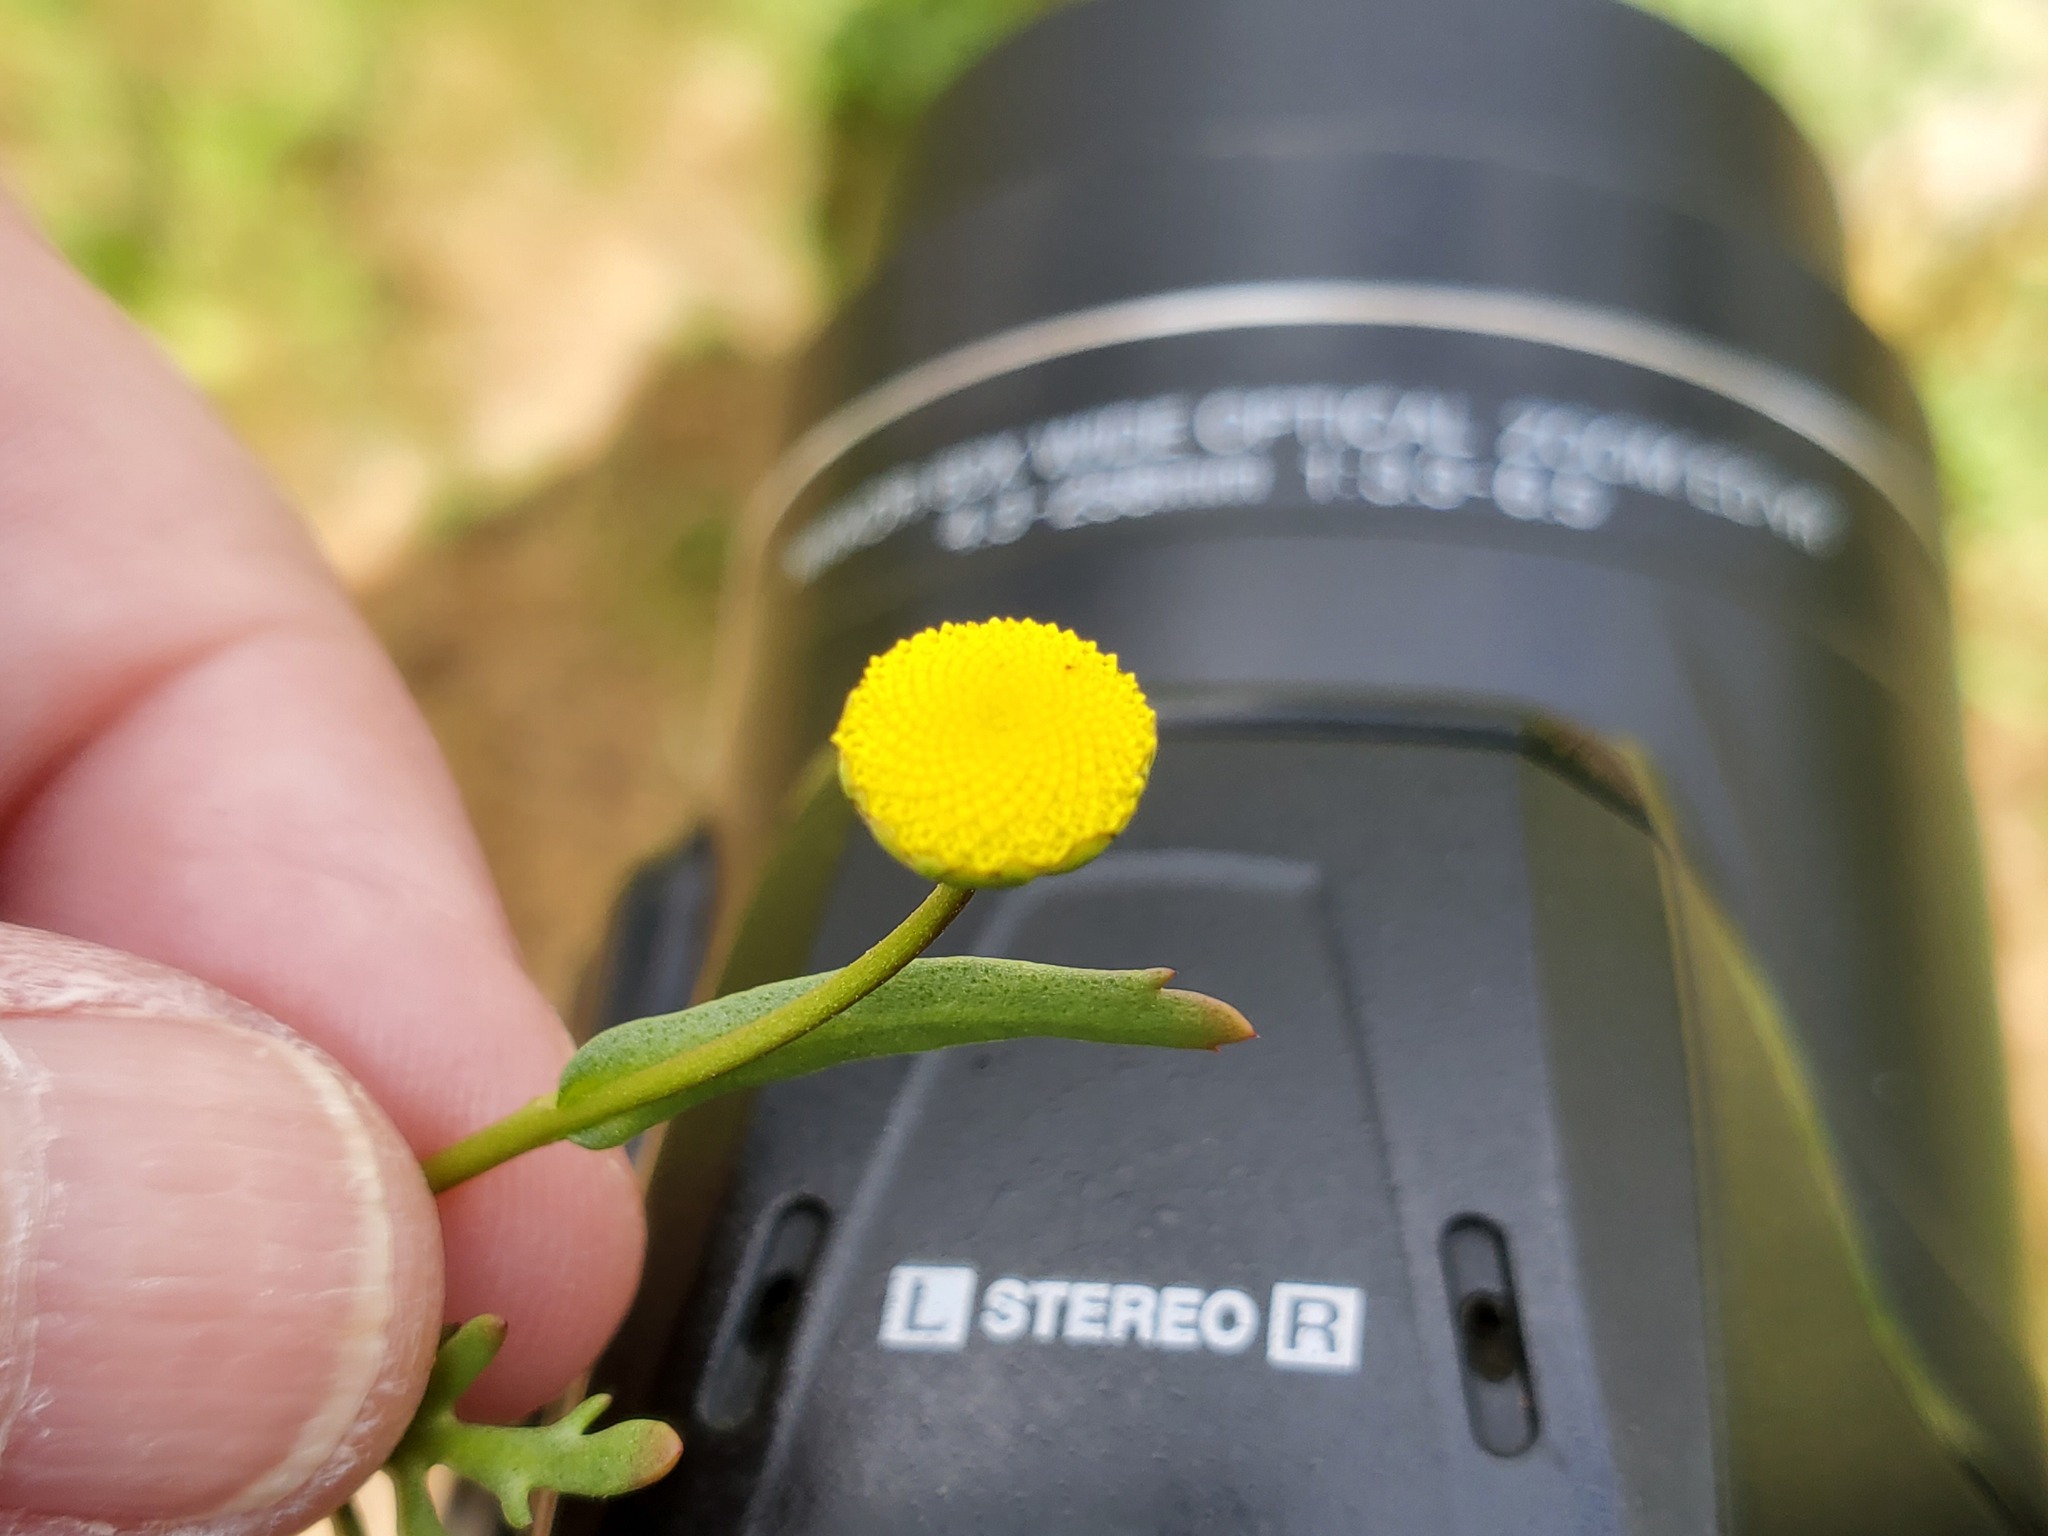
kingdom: Plantae
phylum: Tracheophyta
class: Magnoliopsida
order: Asterales
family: Asteraceae
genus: Cotula
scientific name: Cotula coronopifolia
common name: Buttonweed
